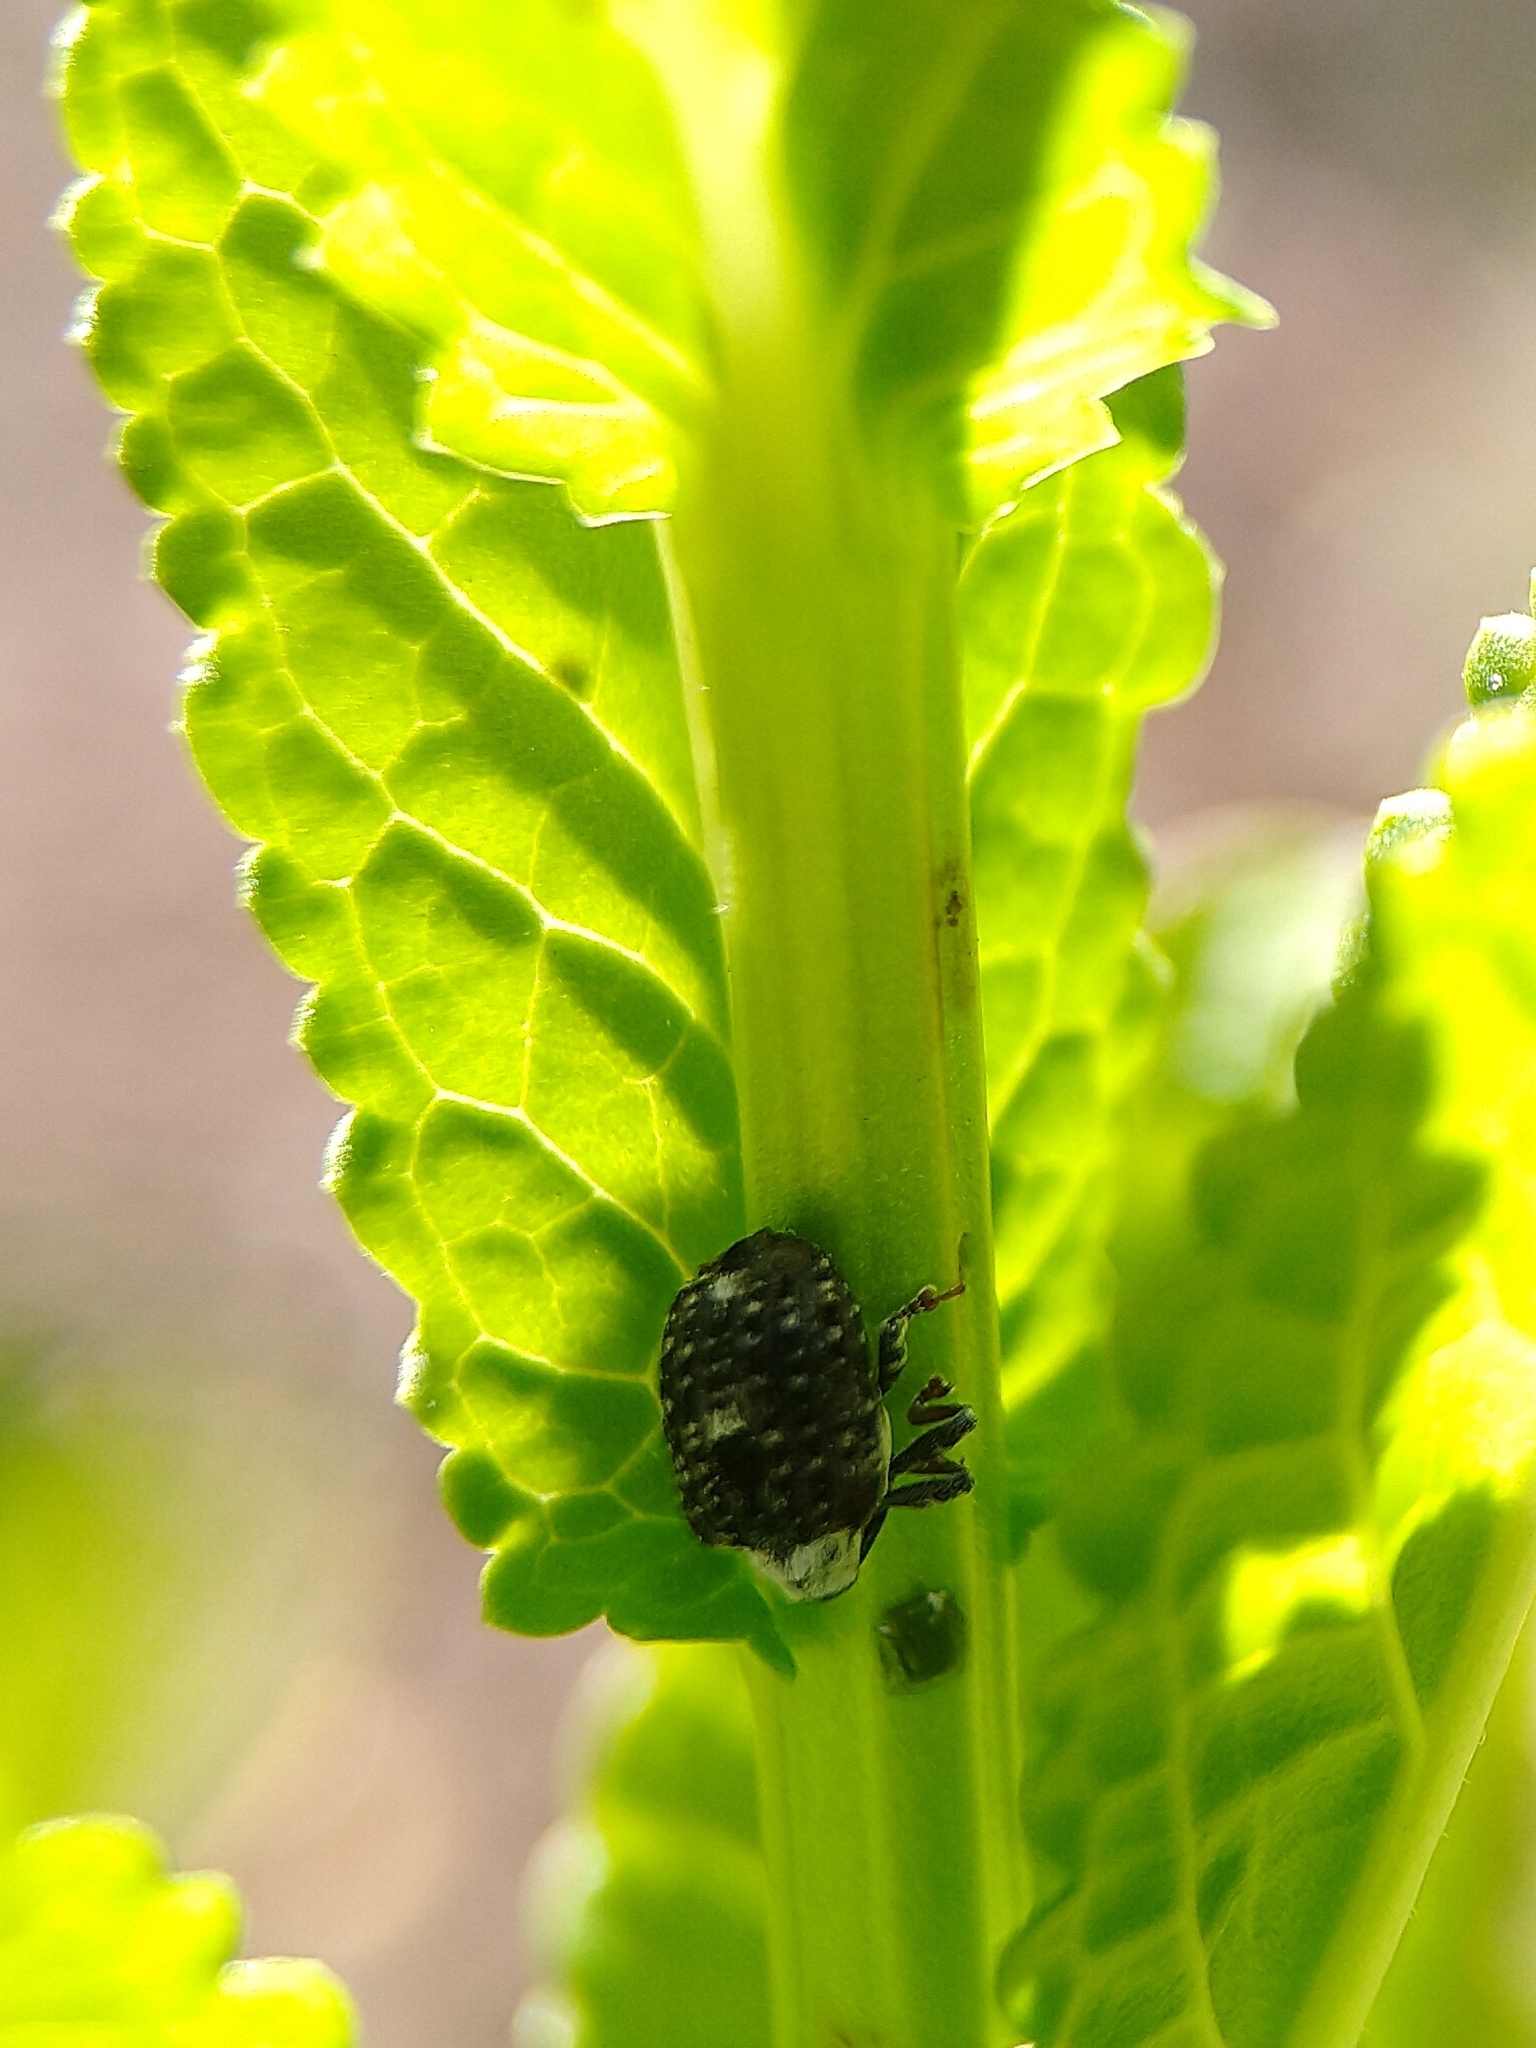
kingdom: Animalia
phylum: Arthropoda
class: Insecta
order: Coleoptera
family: Curculionidae
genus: Cionus
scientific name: Cionus scrophulariae
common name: Common figwort weevil
